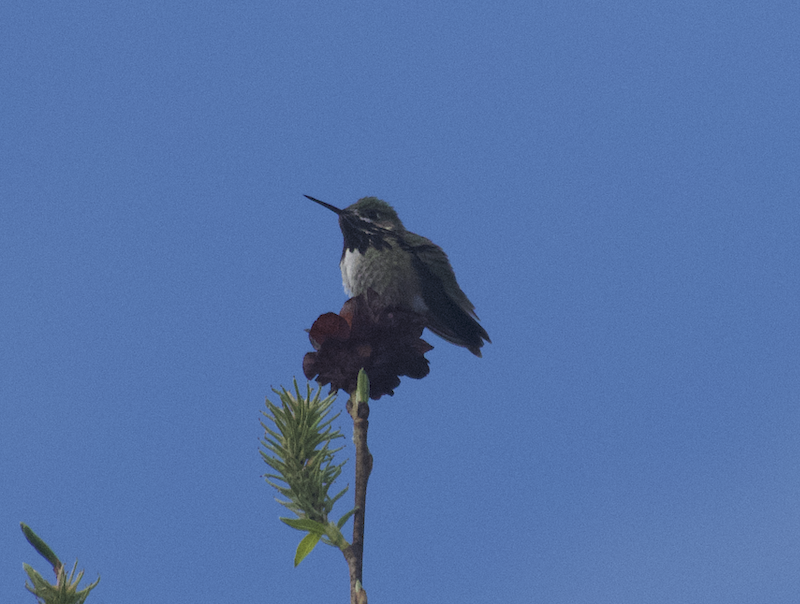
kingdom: Animalia
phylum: Chordata
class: Aves
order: Apodiformes
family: Trochilidae
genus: Selasphorus
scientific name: Selasphorus calliope
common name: Calliope hummingbird
